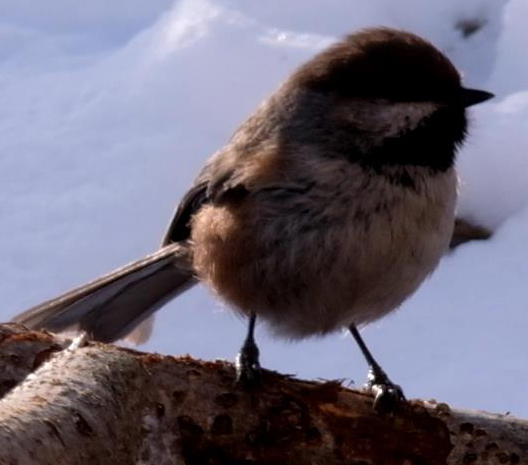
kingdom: Animalia
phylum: Chordata
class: Aves
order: Passeriformes
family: Paridae
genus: Poecile
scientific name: Poecile hudsonicus
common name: Boreal chickadee
